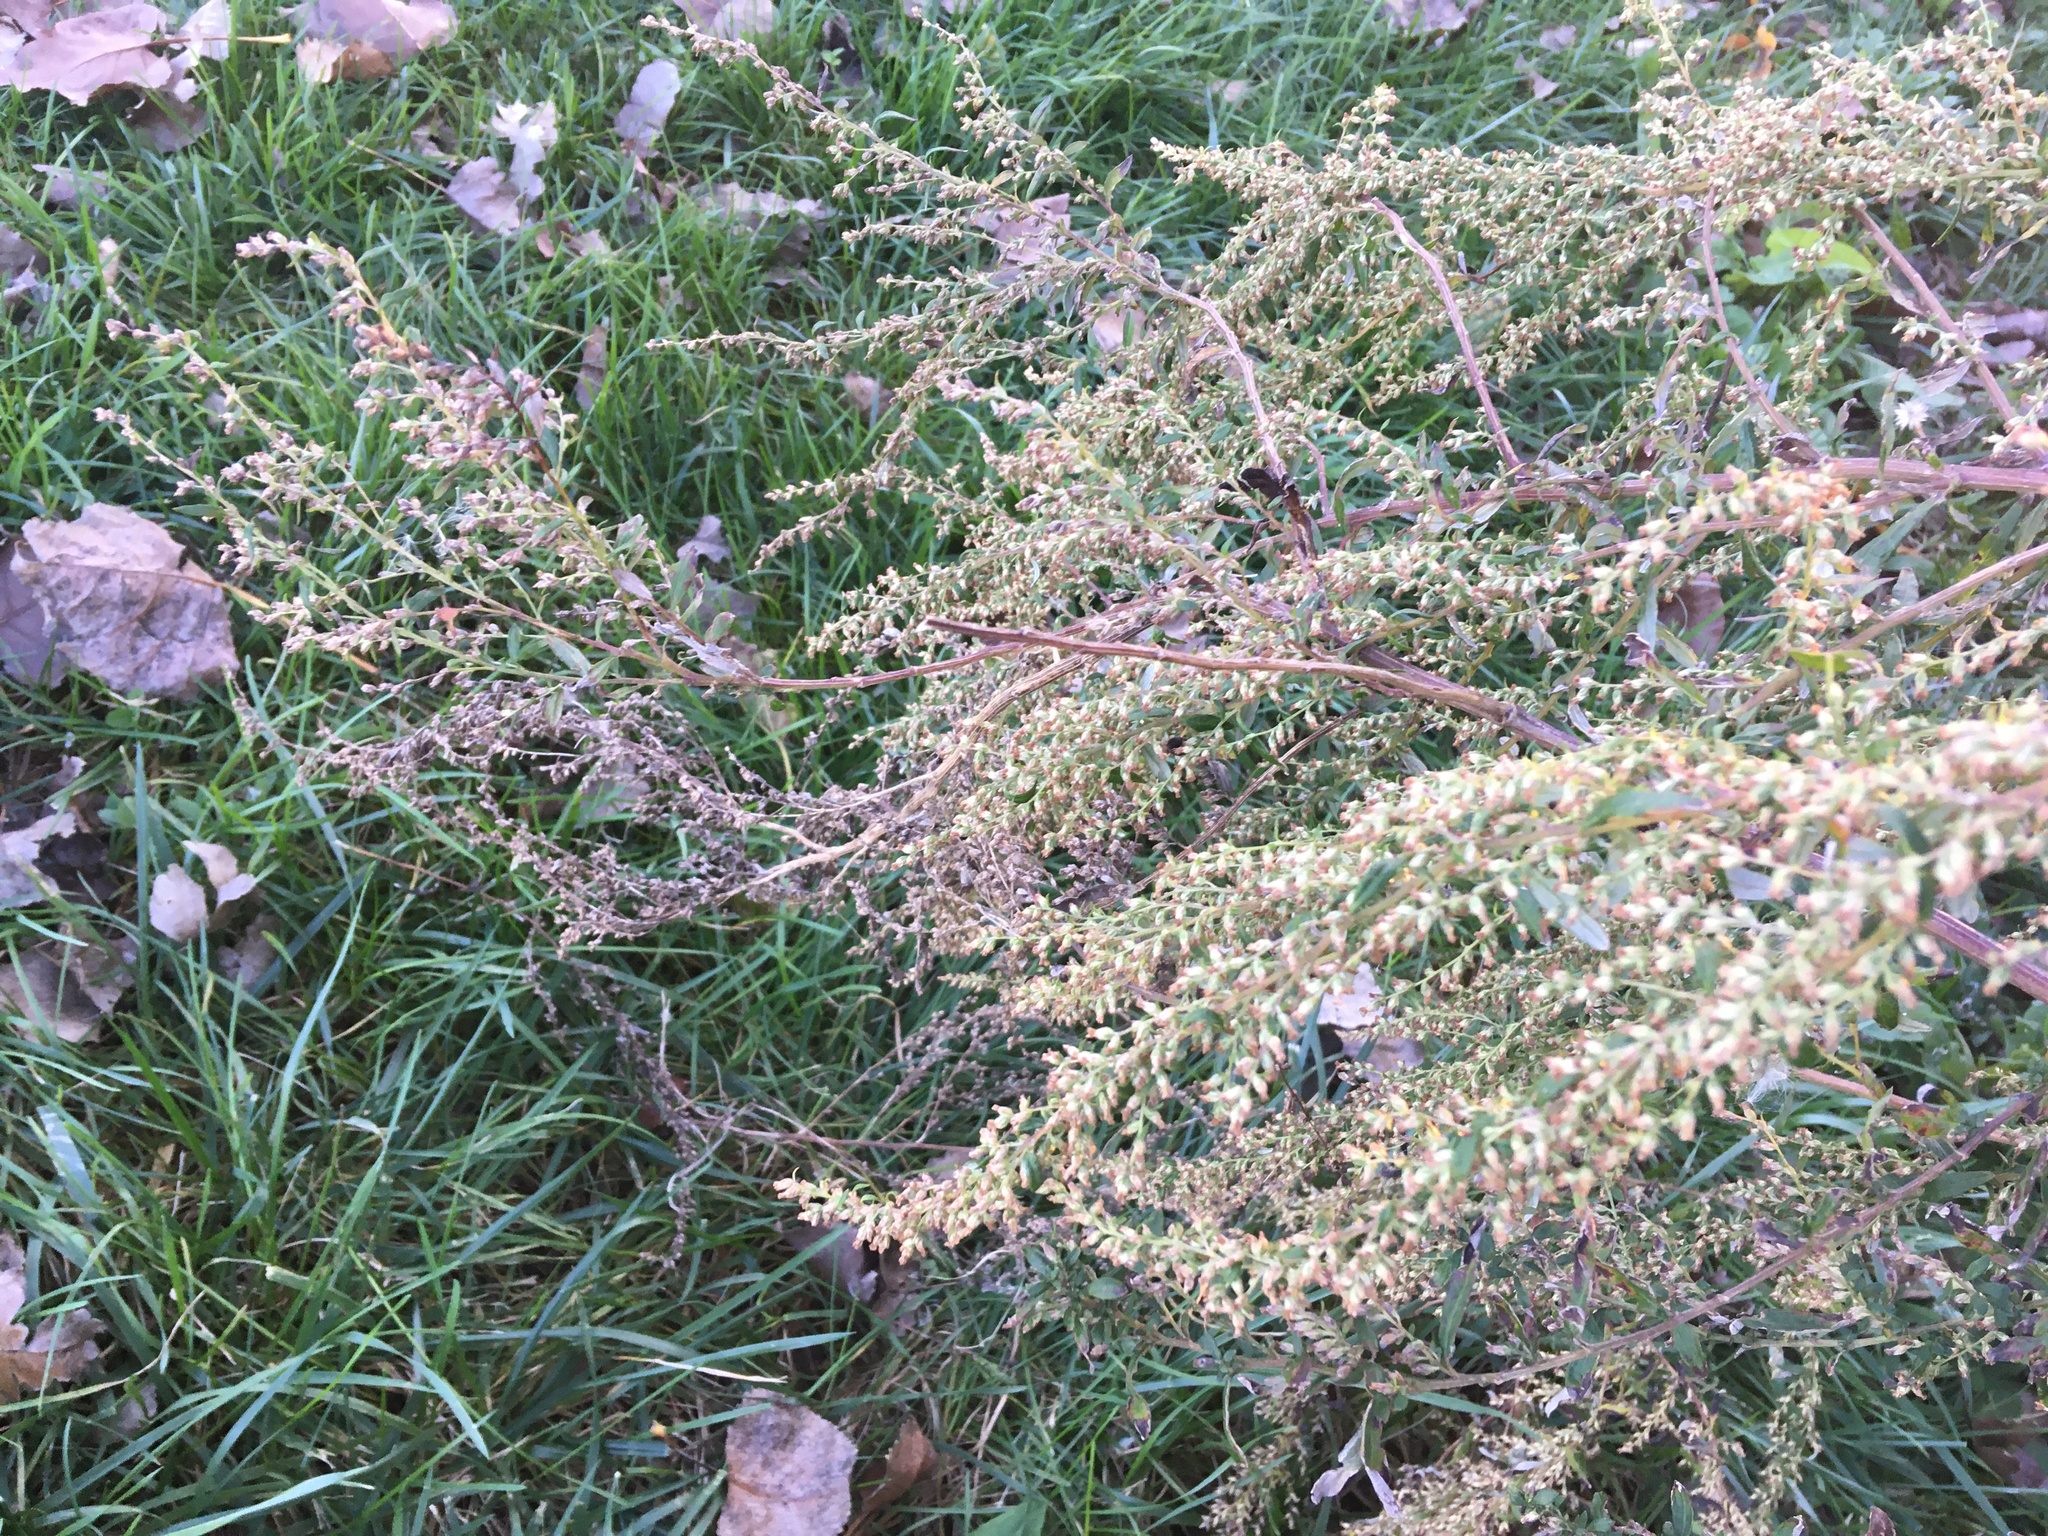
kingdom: Plantae
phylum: Tracheophyta
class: Magnoliopsida
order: Asterales
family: Asteraceae
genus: Artemisia
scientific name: Artemisia vulgaris
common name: Mugwort
